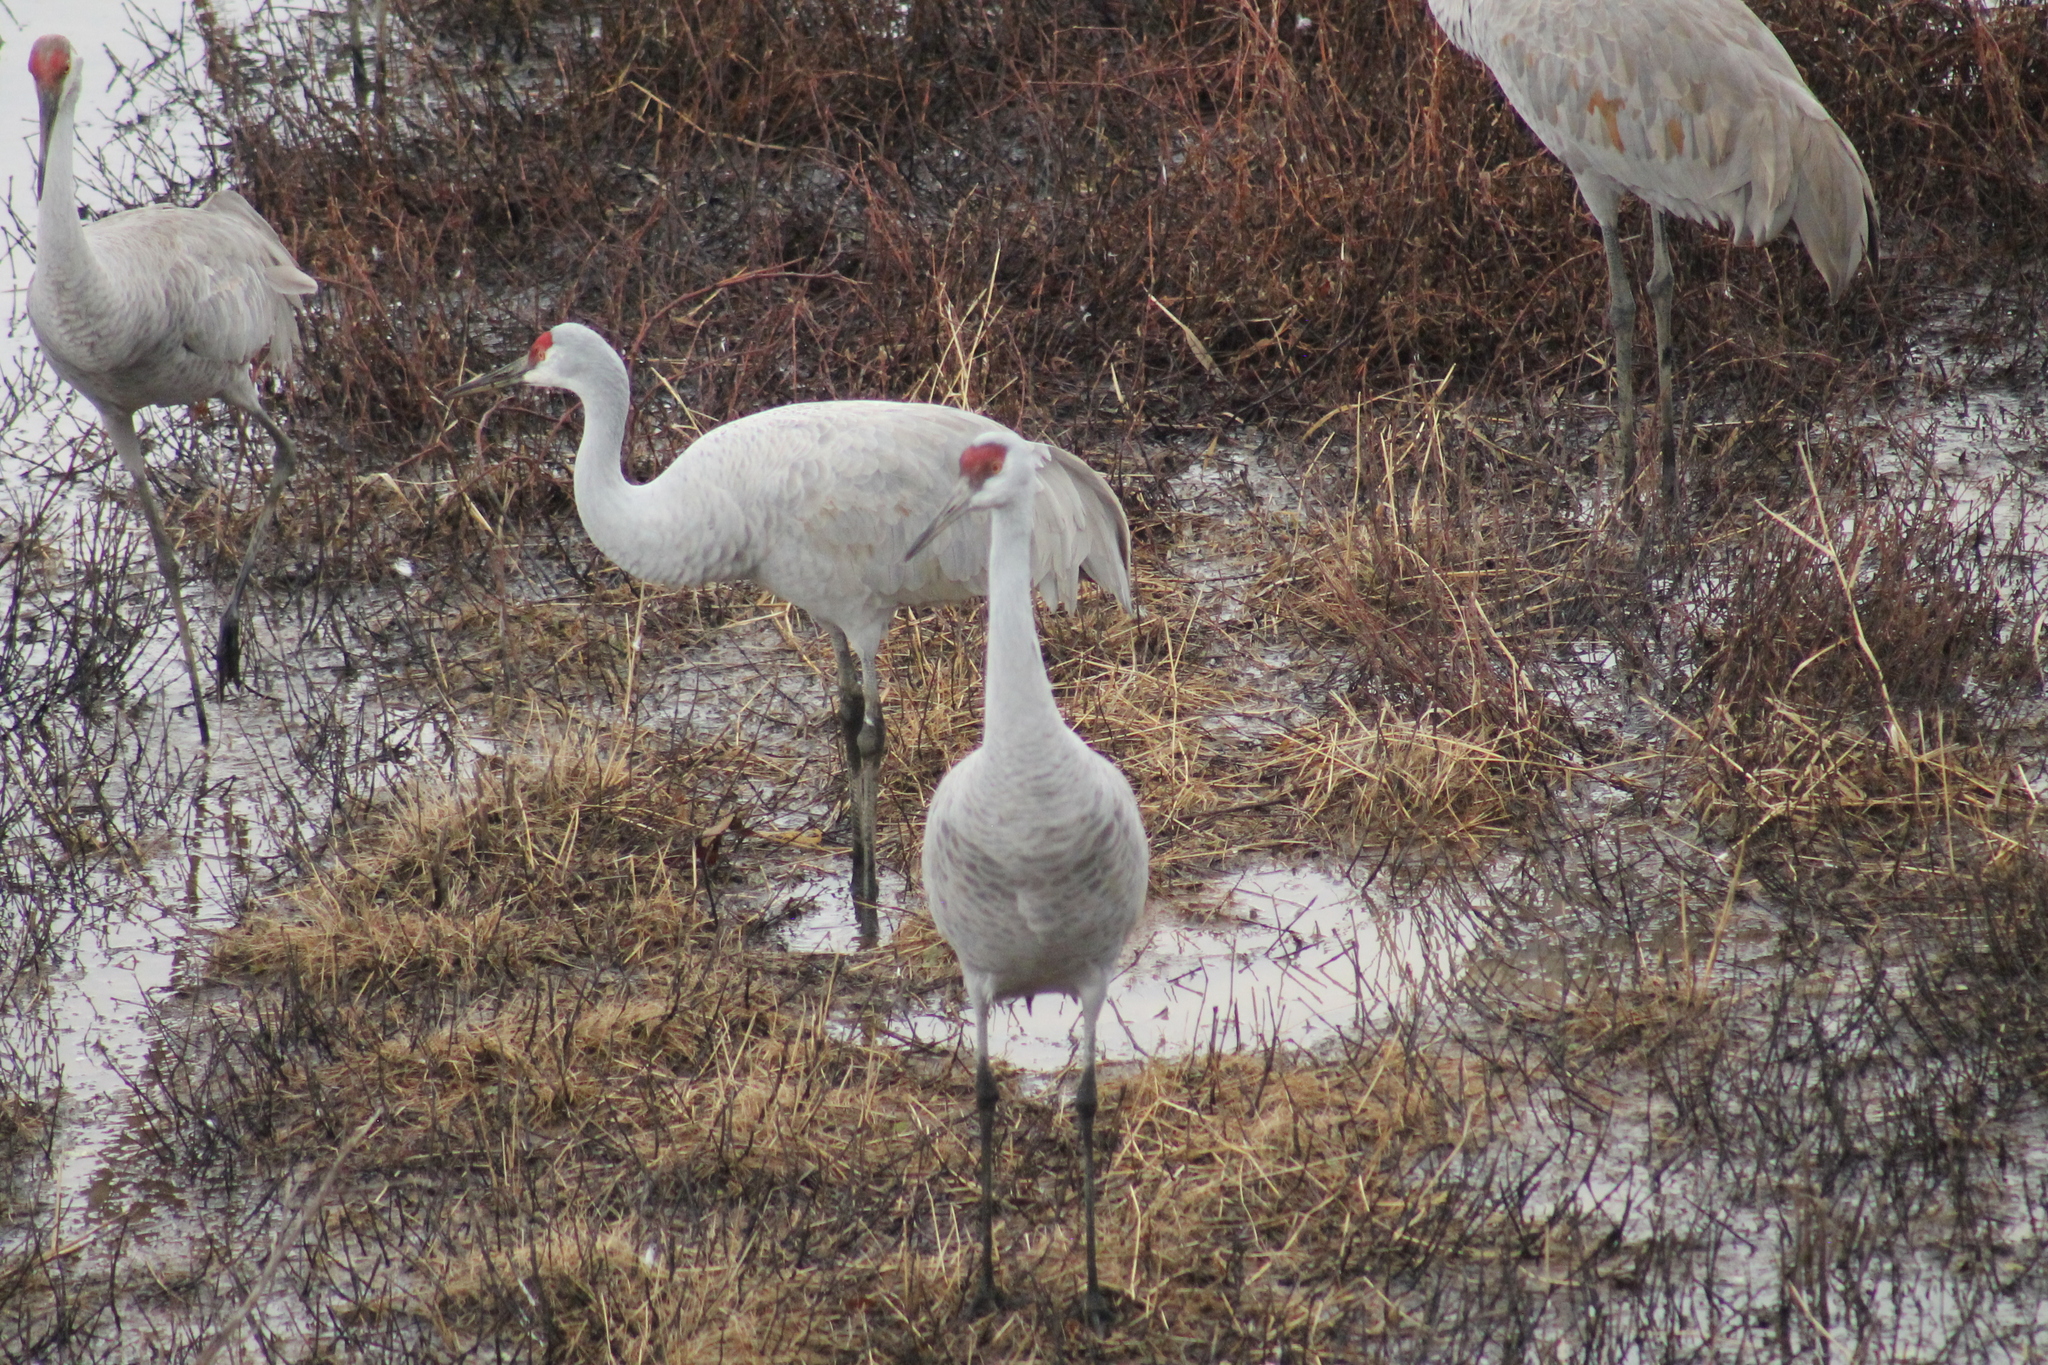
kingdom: Animalia
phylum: Chordata
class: Aves
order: Gruiformes
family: Gruidae
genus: Grus
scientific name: Grus canadensis
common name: Sandhill crane
